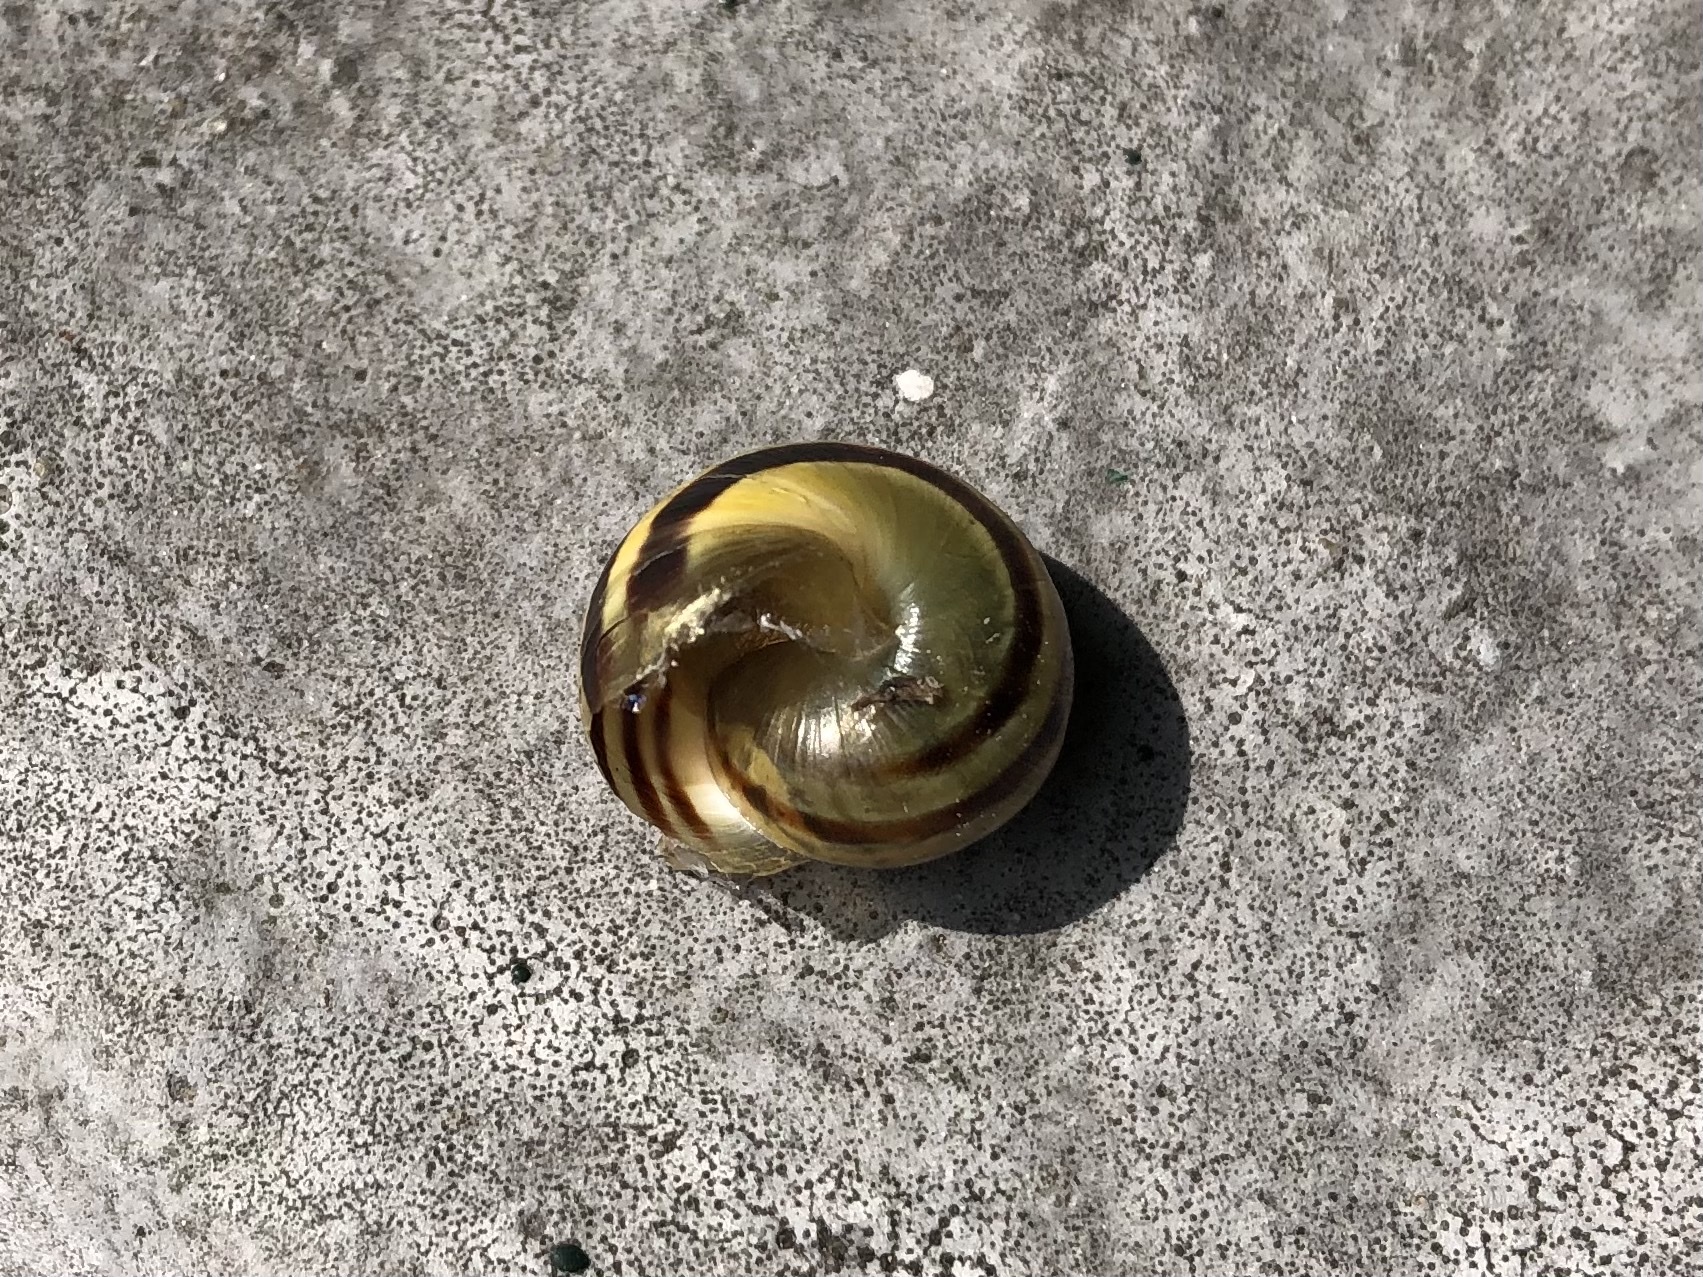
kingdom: Animalia
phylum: Mollusca
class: Gastropoda
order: Stylommatophora
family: Helicidae
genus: Cepaea
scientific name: Cepaea nemoralis
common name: Grovesnail
